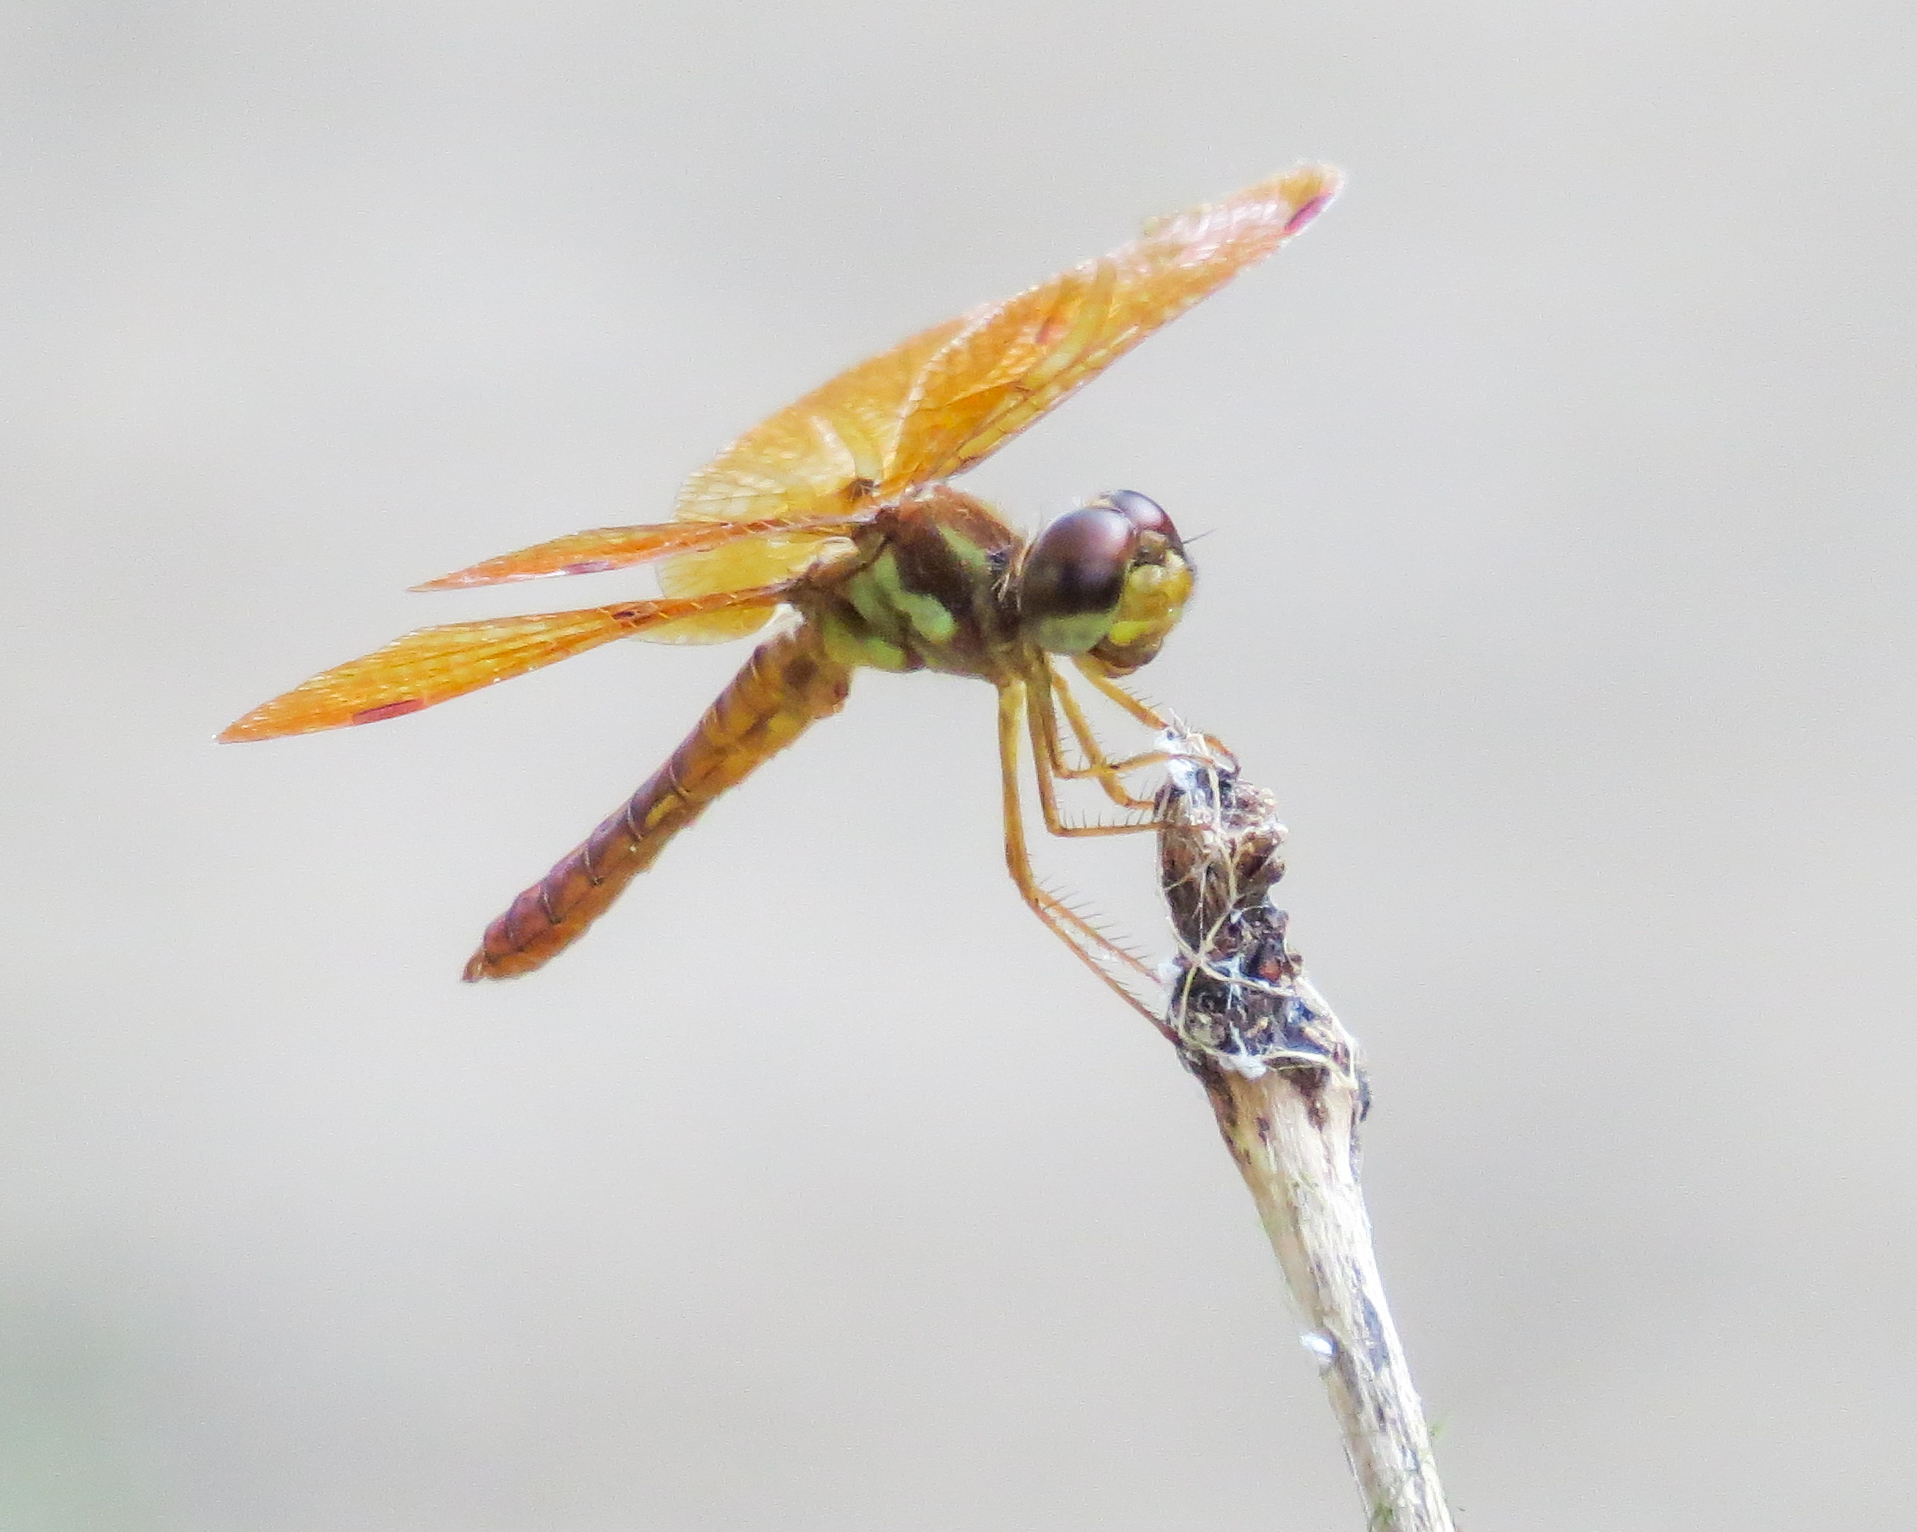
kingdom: Animalia
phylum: Arthropoda
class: Insecta
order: Odonata
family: Libellulidae
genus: Perithemis
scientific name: Perithemis tenera
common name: Eastern amberwing
